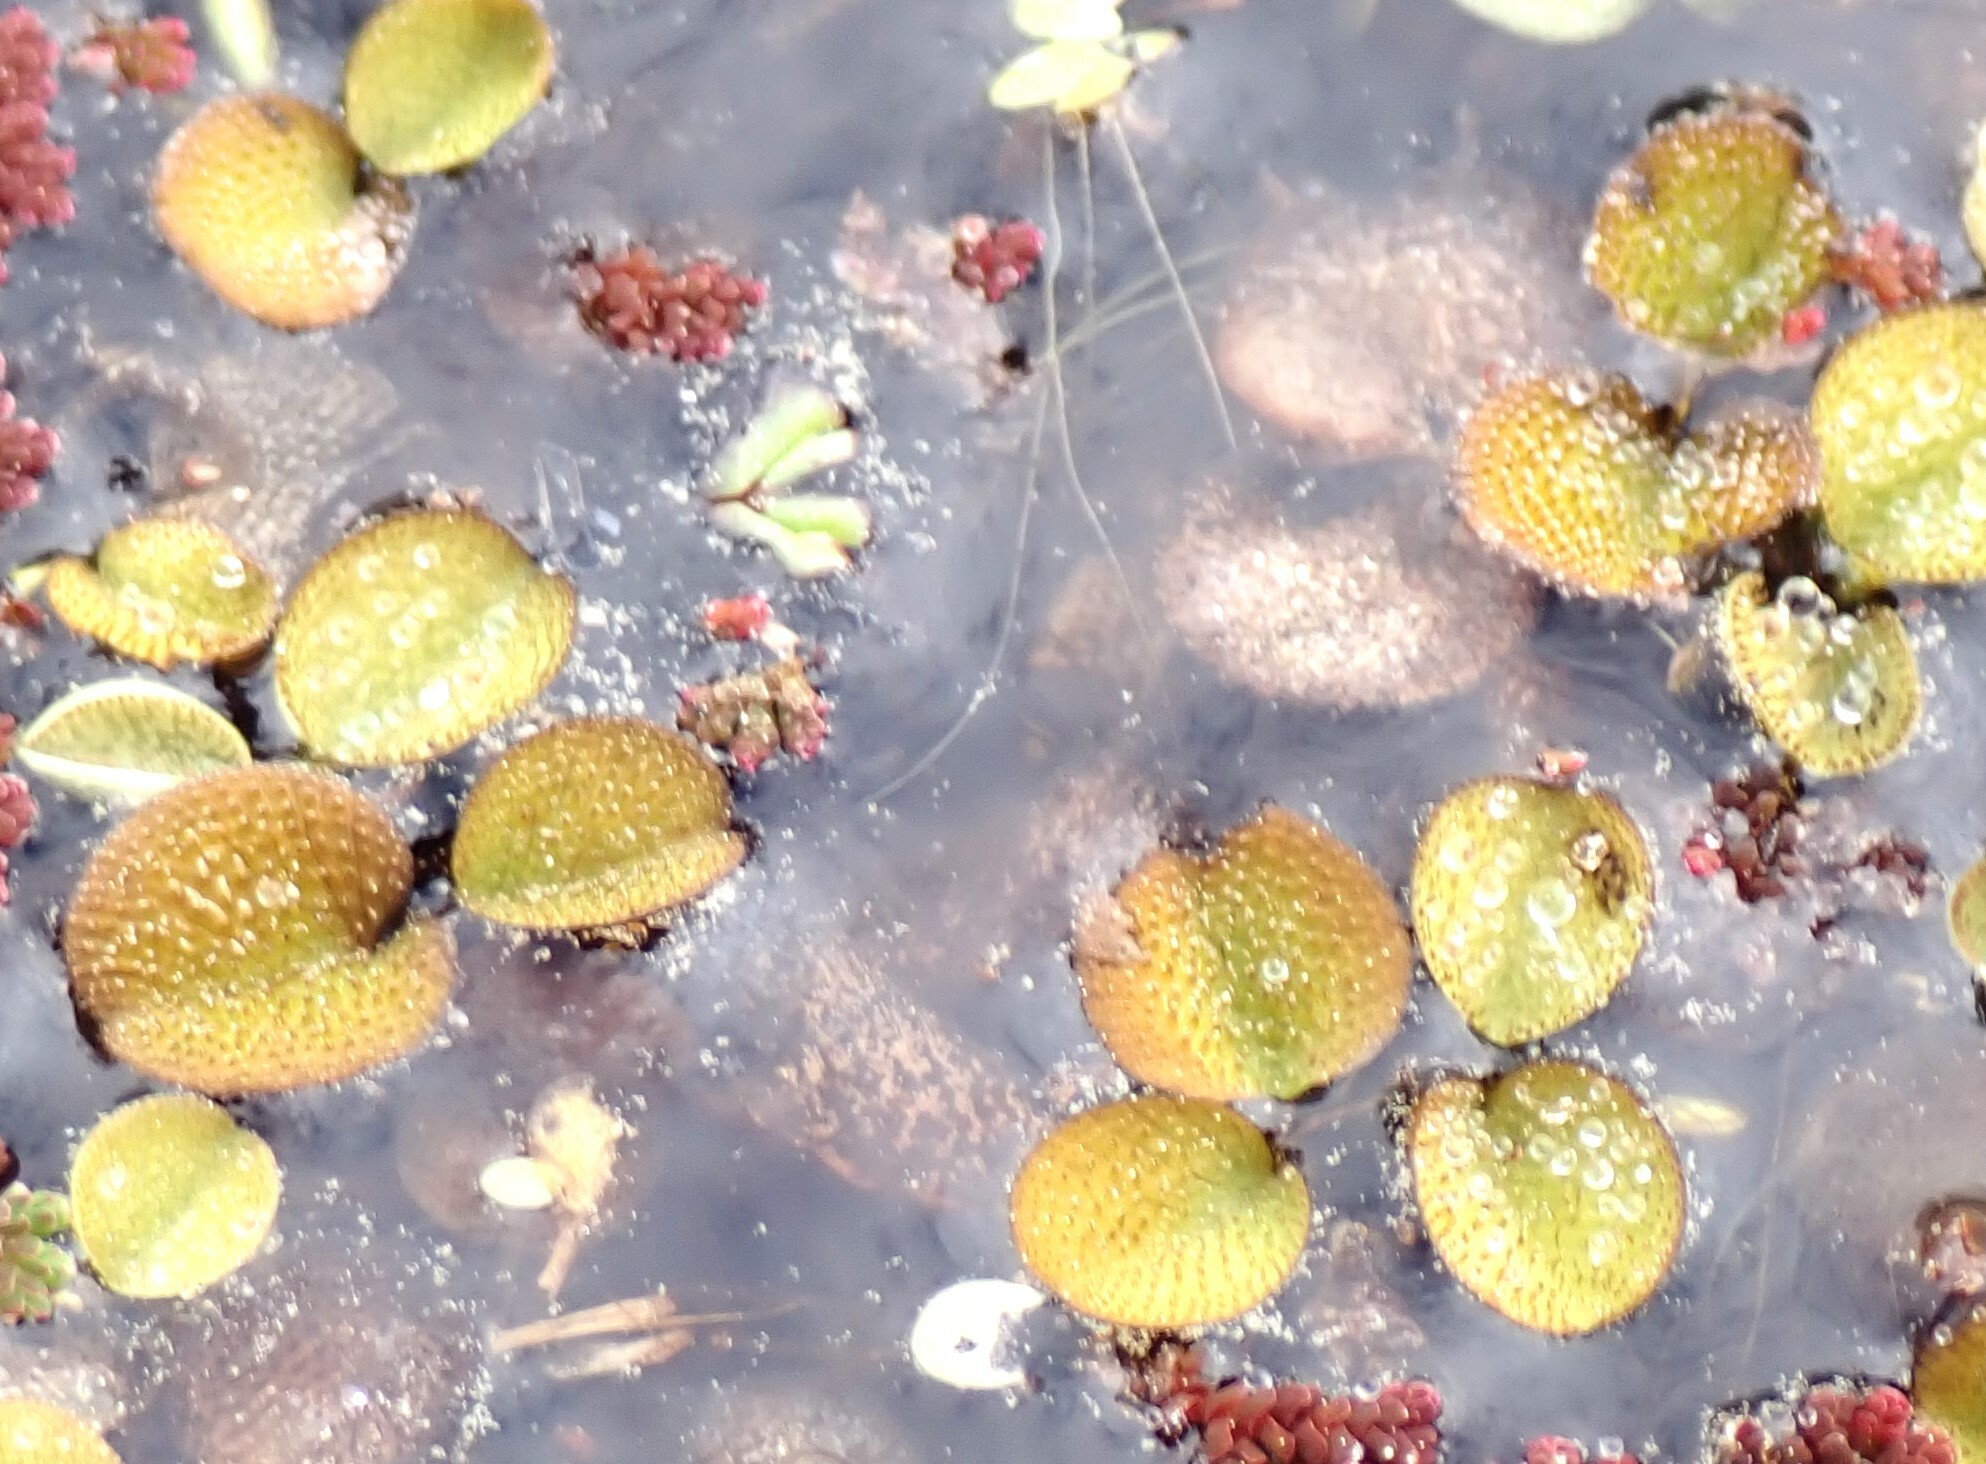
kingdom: Plantae
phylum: Tracheophyta
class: Polypodiopsida
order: Salviniales
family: Salviniaceae
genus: Salvinia
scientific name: Salvinia minima
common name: Water spangles
